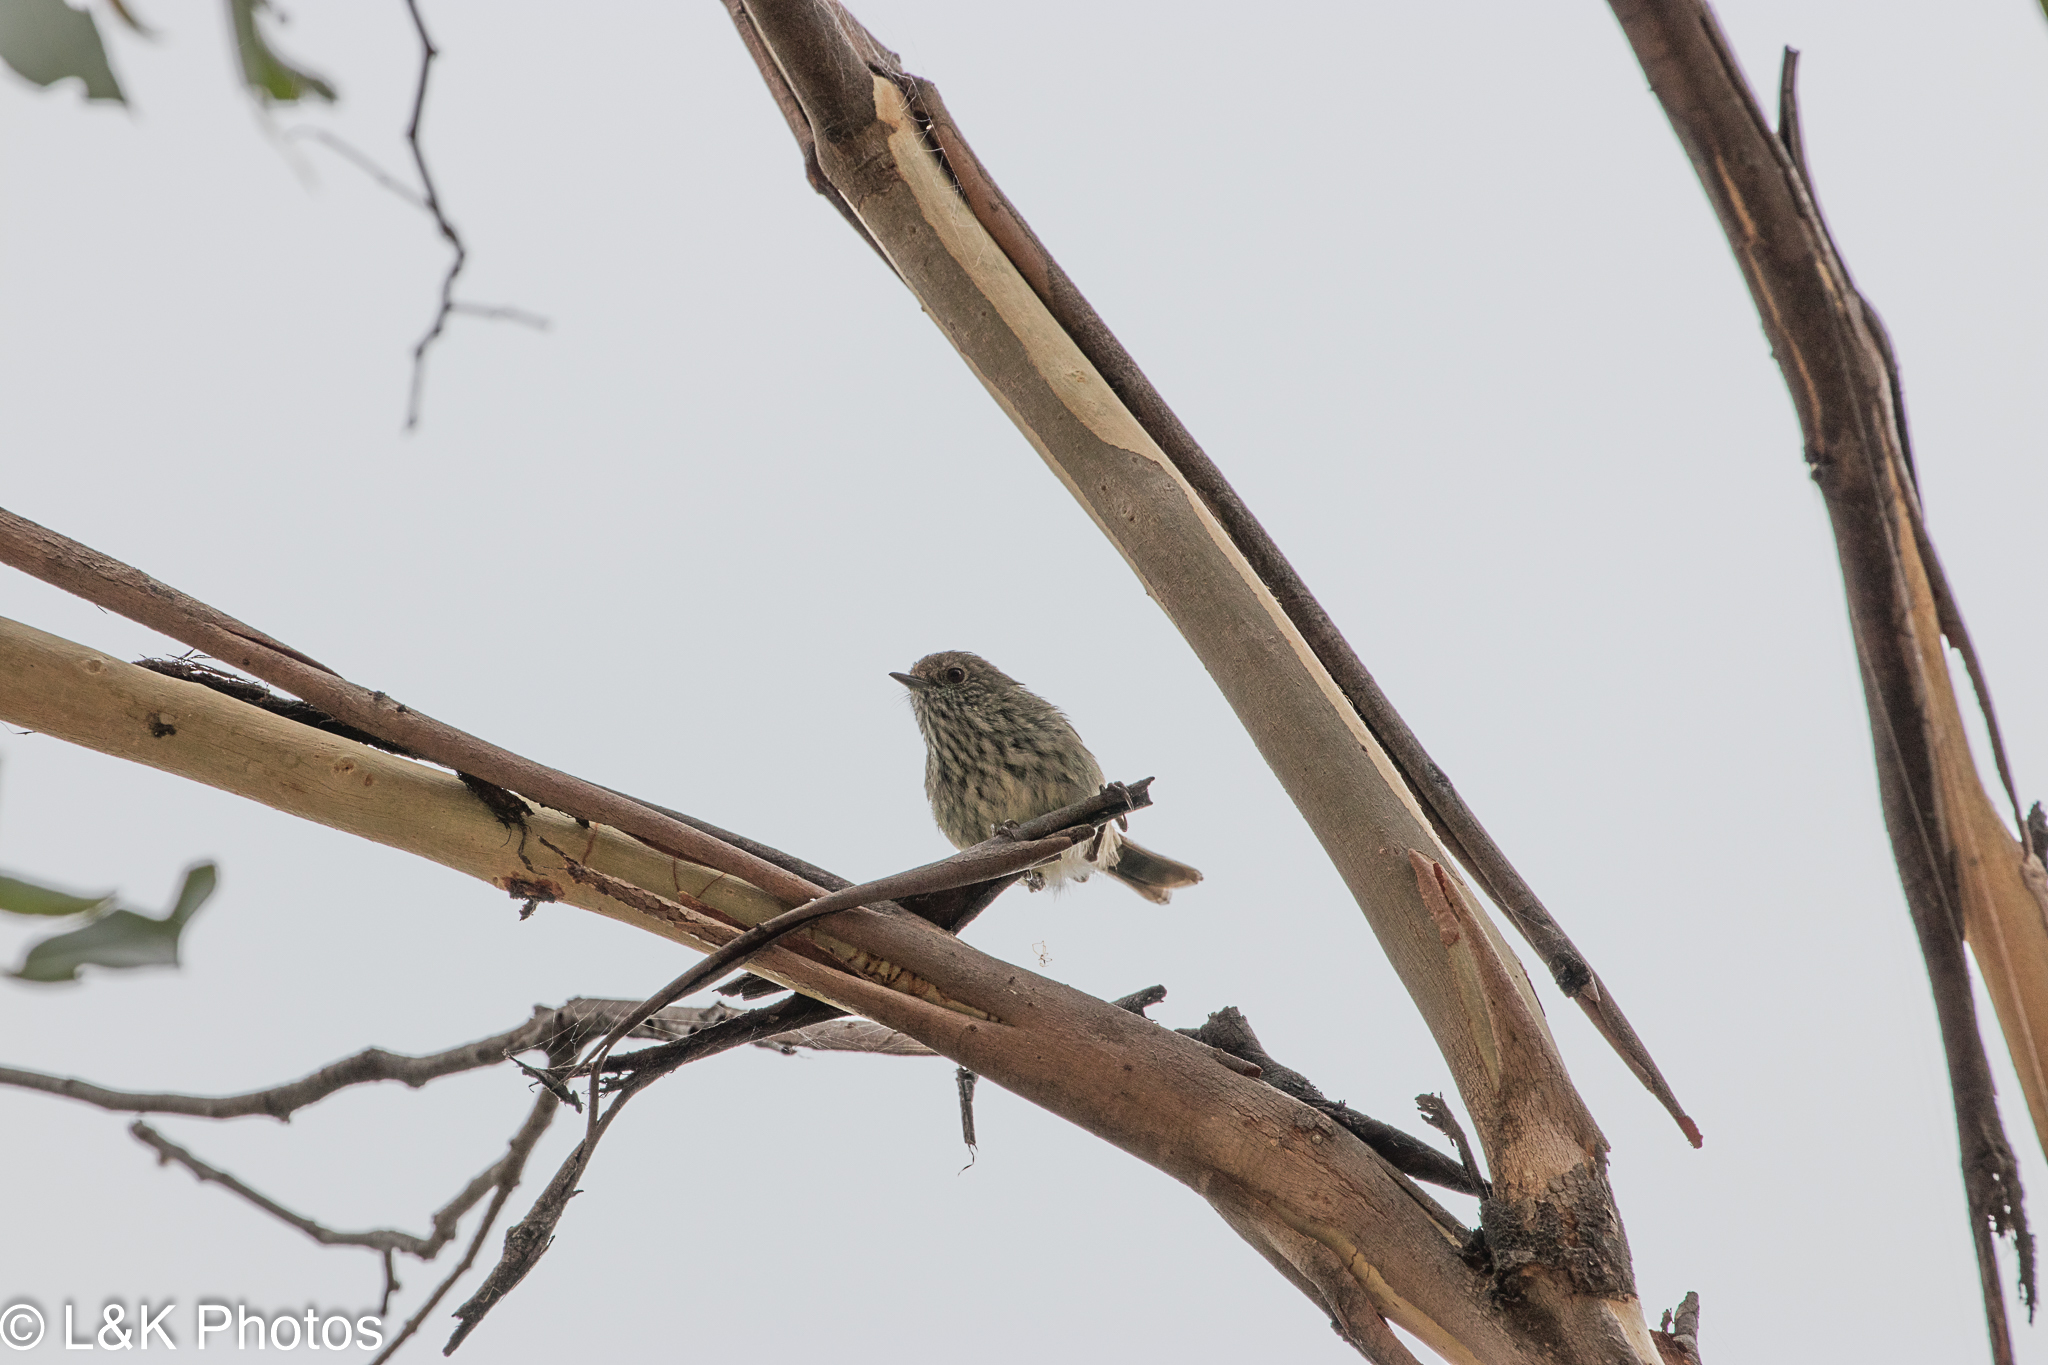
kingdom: Animalia
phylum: Chordata
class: Aves
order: Passeriformes
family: Acanthizidae
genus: Acanthiza
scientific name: Acanthiza pusilla
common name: Brown thornbill
